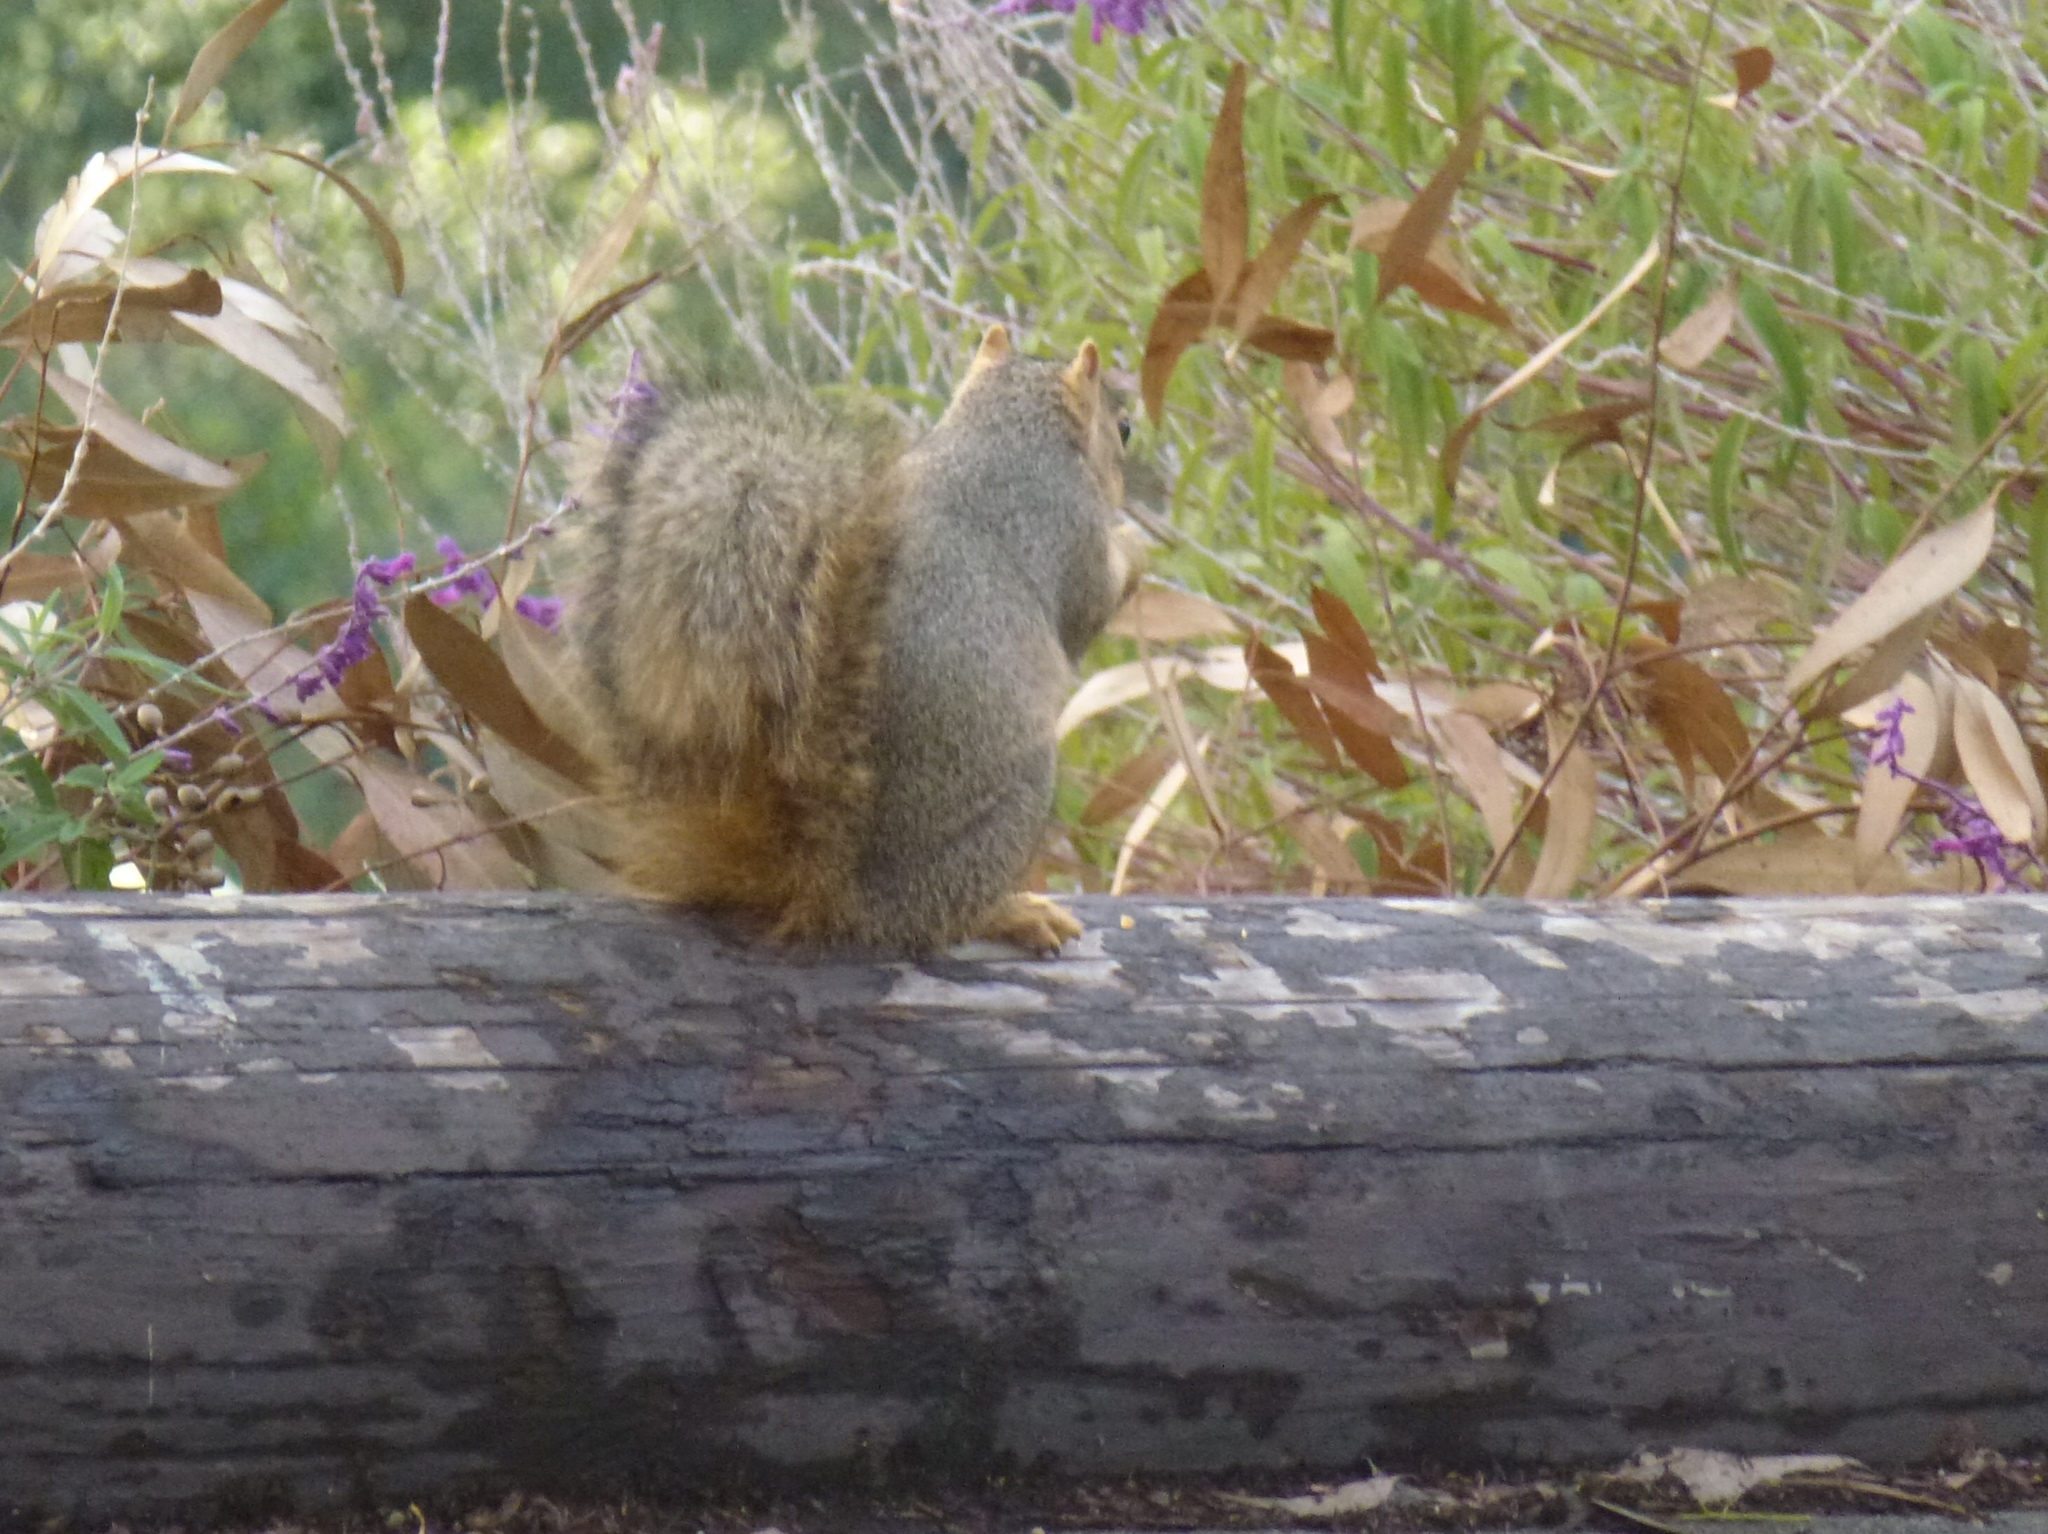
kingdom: Animalia
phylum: Chordata
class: Mammalia
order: Rodentia
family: Sciuridae
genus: Sciurus
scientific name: Sciurus niger
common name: Fox squirrel
